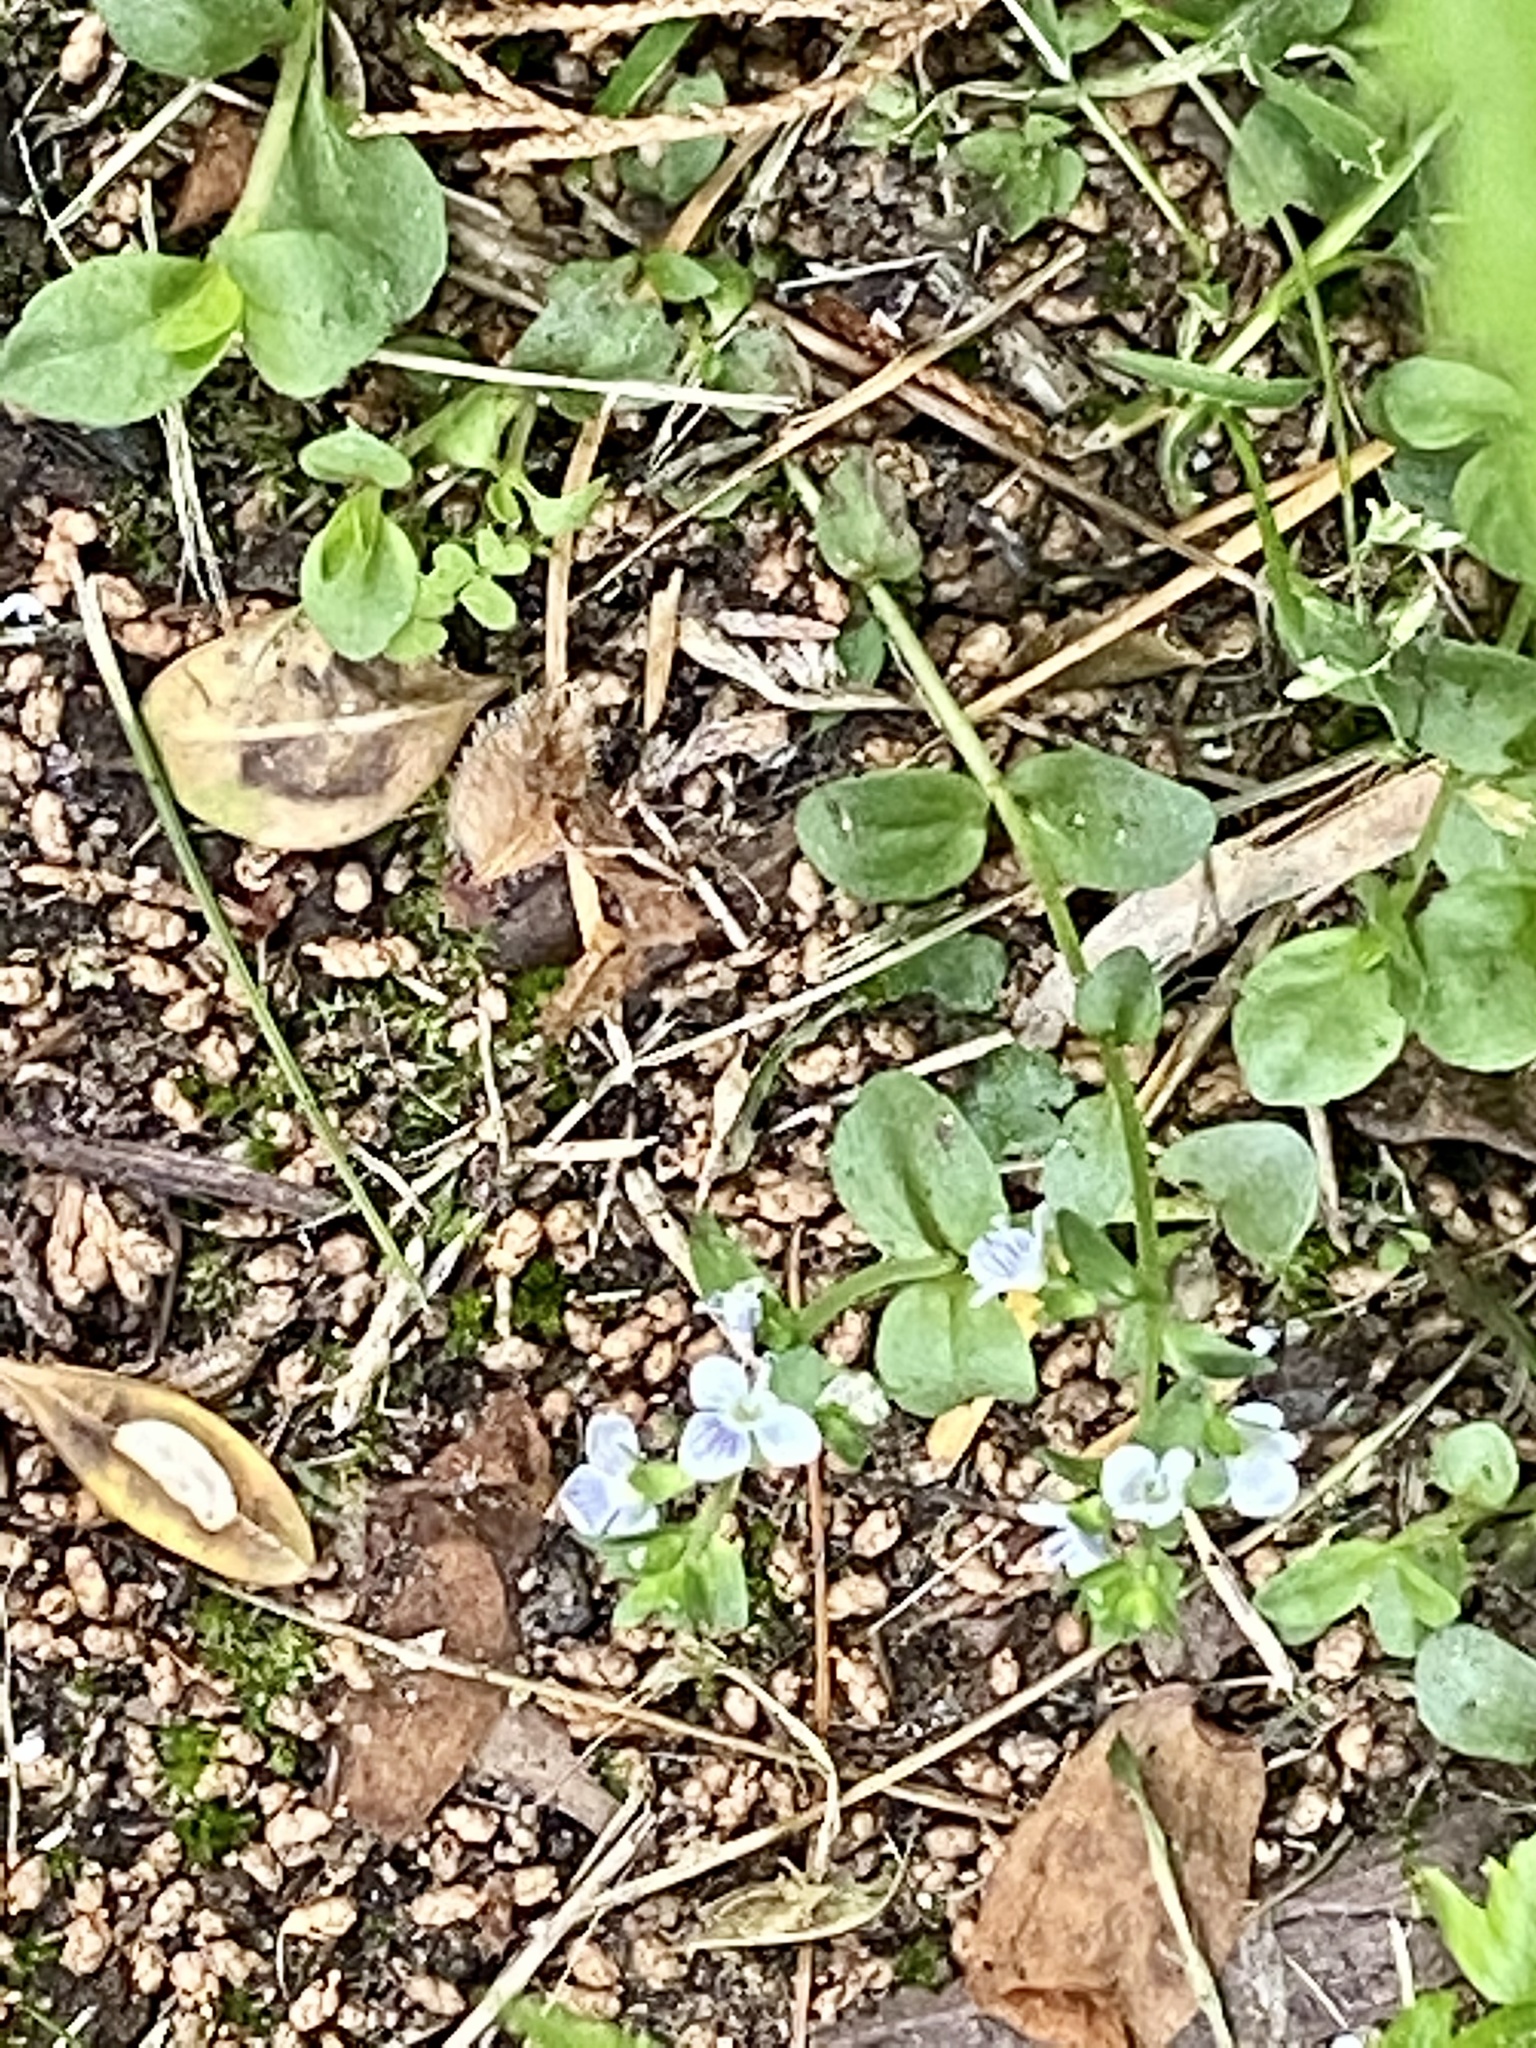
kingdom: Plantae
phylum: Tracheophyta
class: Magnoliopsida
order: Lamiales
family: Plantaginaceae
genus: Veronica
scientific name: Veronica serpyllifolia
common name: Thyme-leaved speedwell
